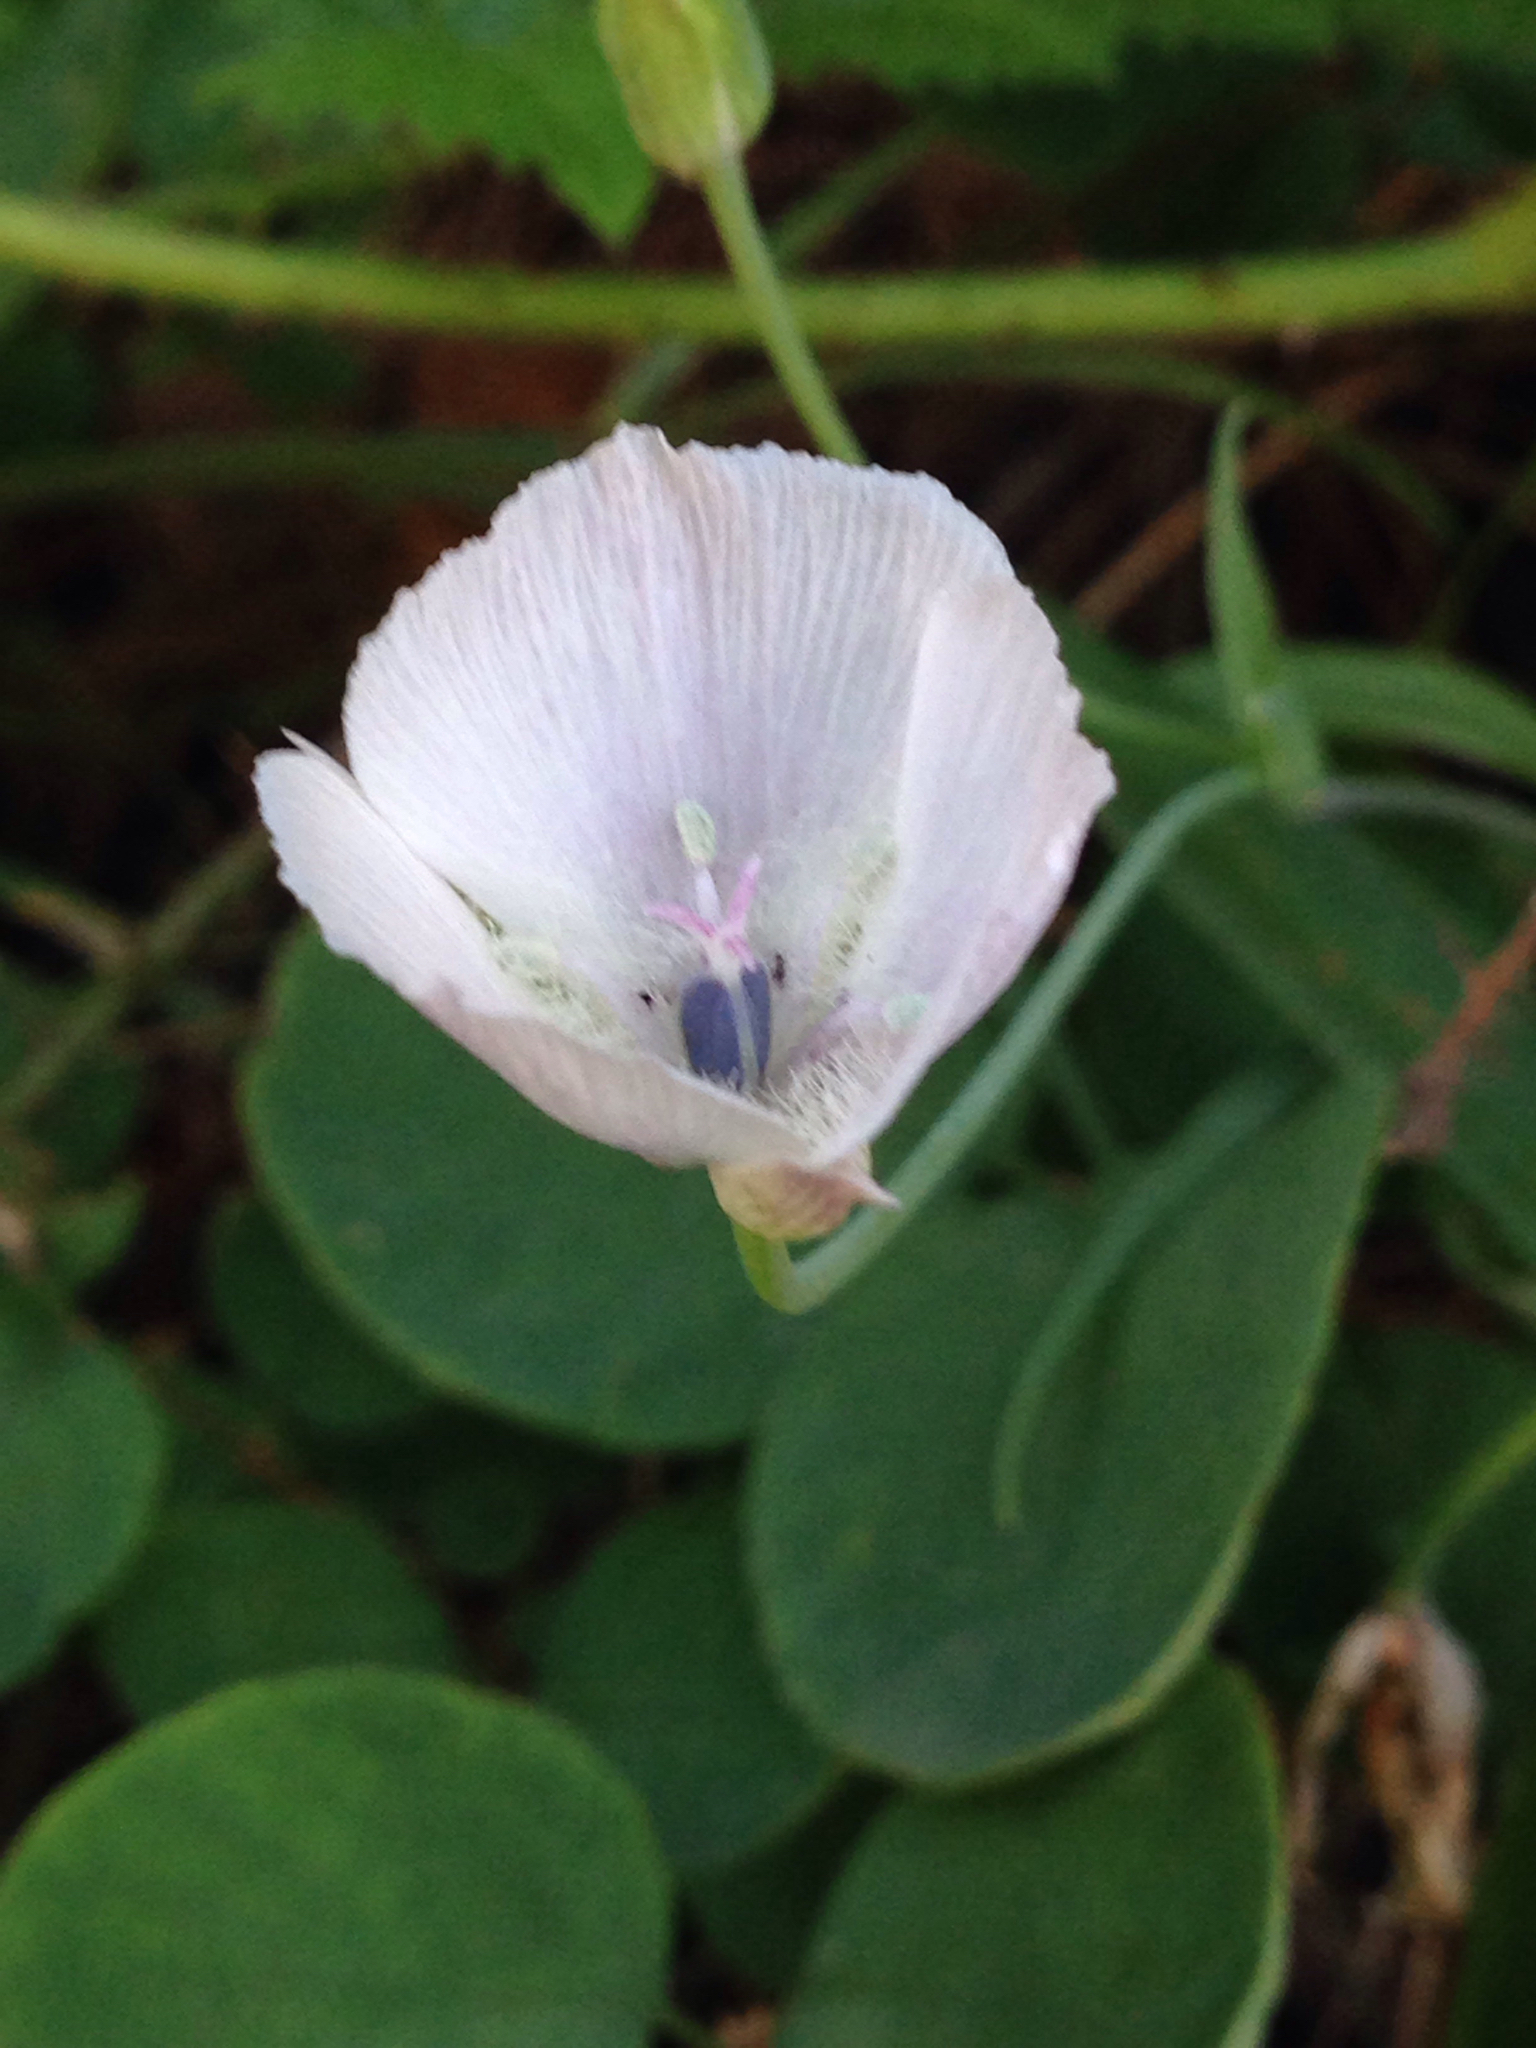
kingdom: Plantae
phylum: Tracheophyta
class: Liliopsida
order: Liliales
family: Liliaceae
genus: Calochortus
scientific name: Calochortus umbellatus
